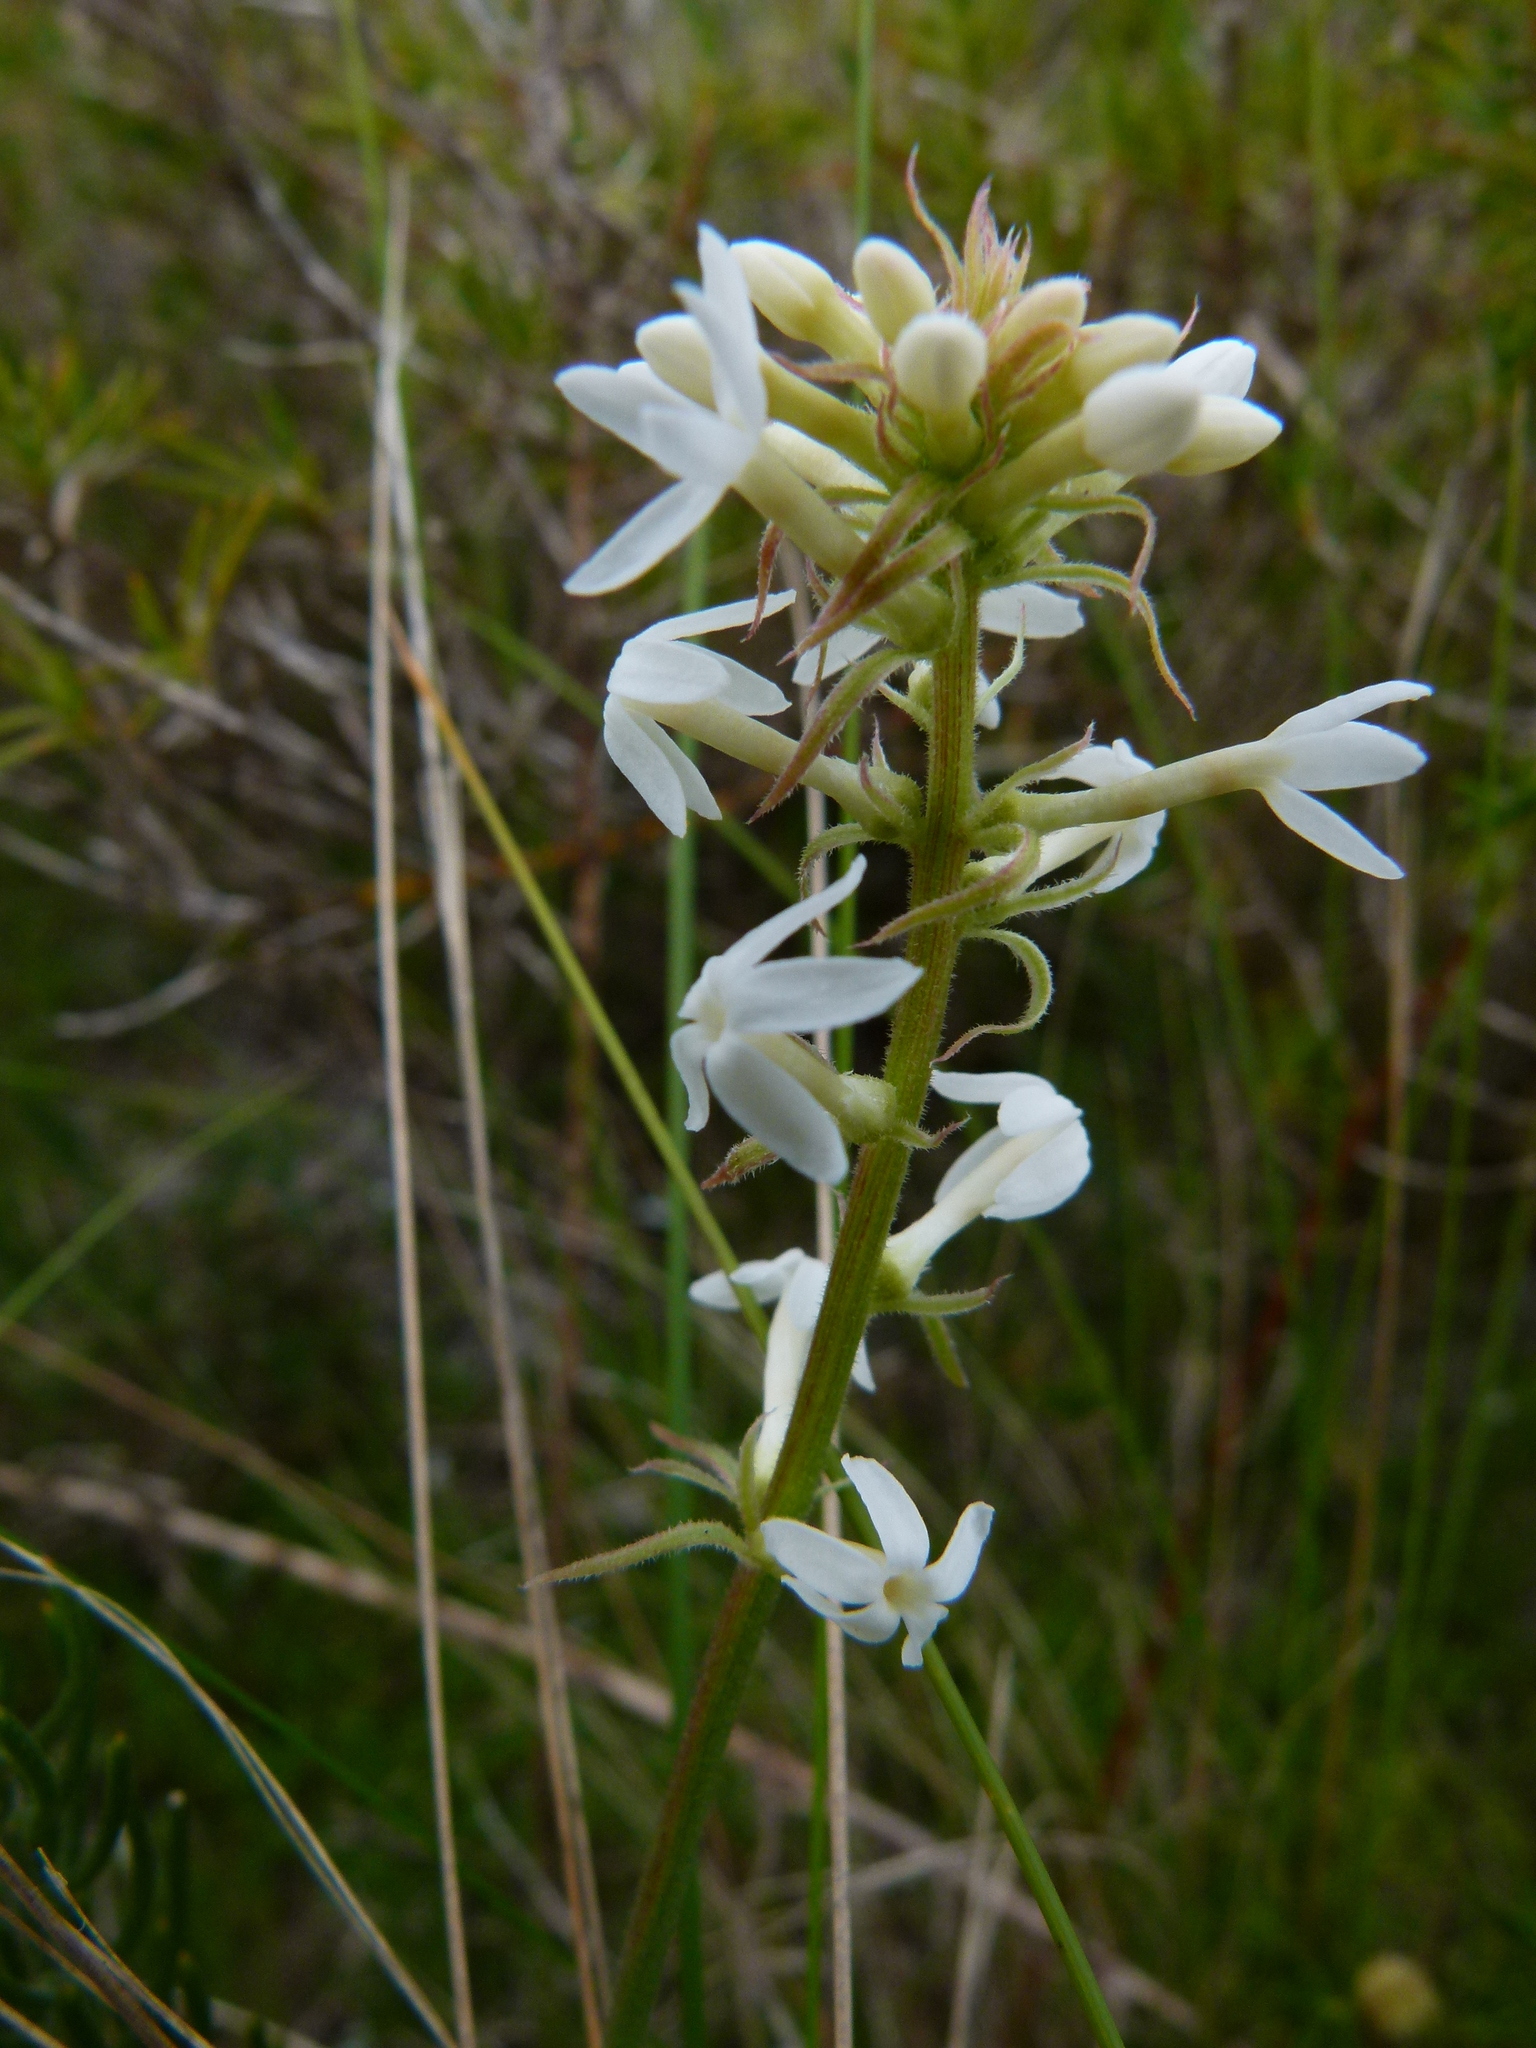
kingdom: Plantae
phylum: Tracheophyta
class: Magnoliopsida
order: Celastrales
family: Celastraceae
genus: Stackhousia
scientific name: Stackhousia monogyna
